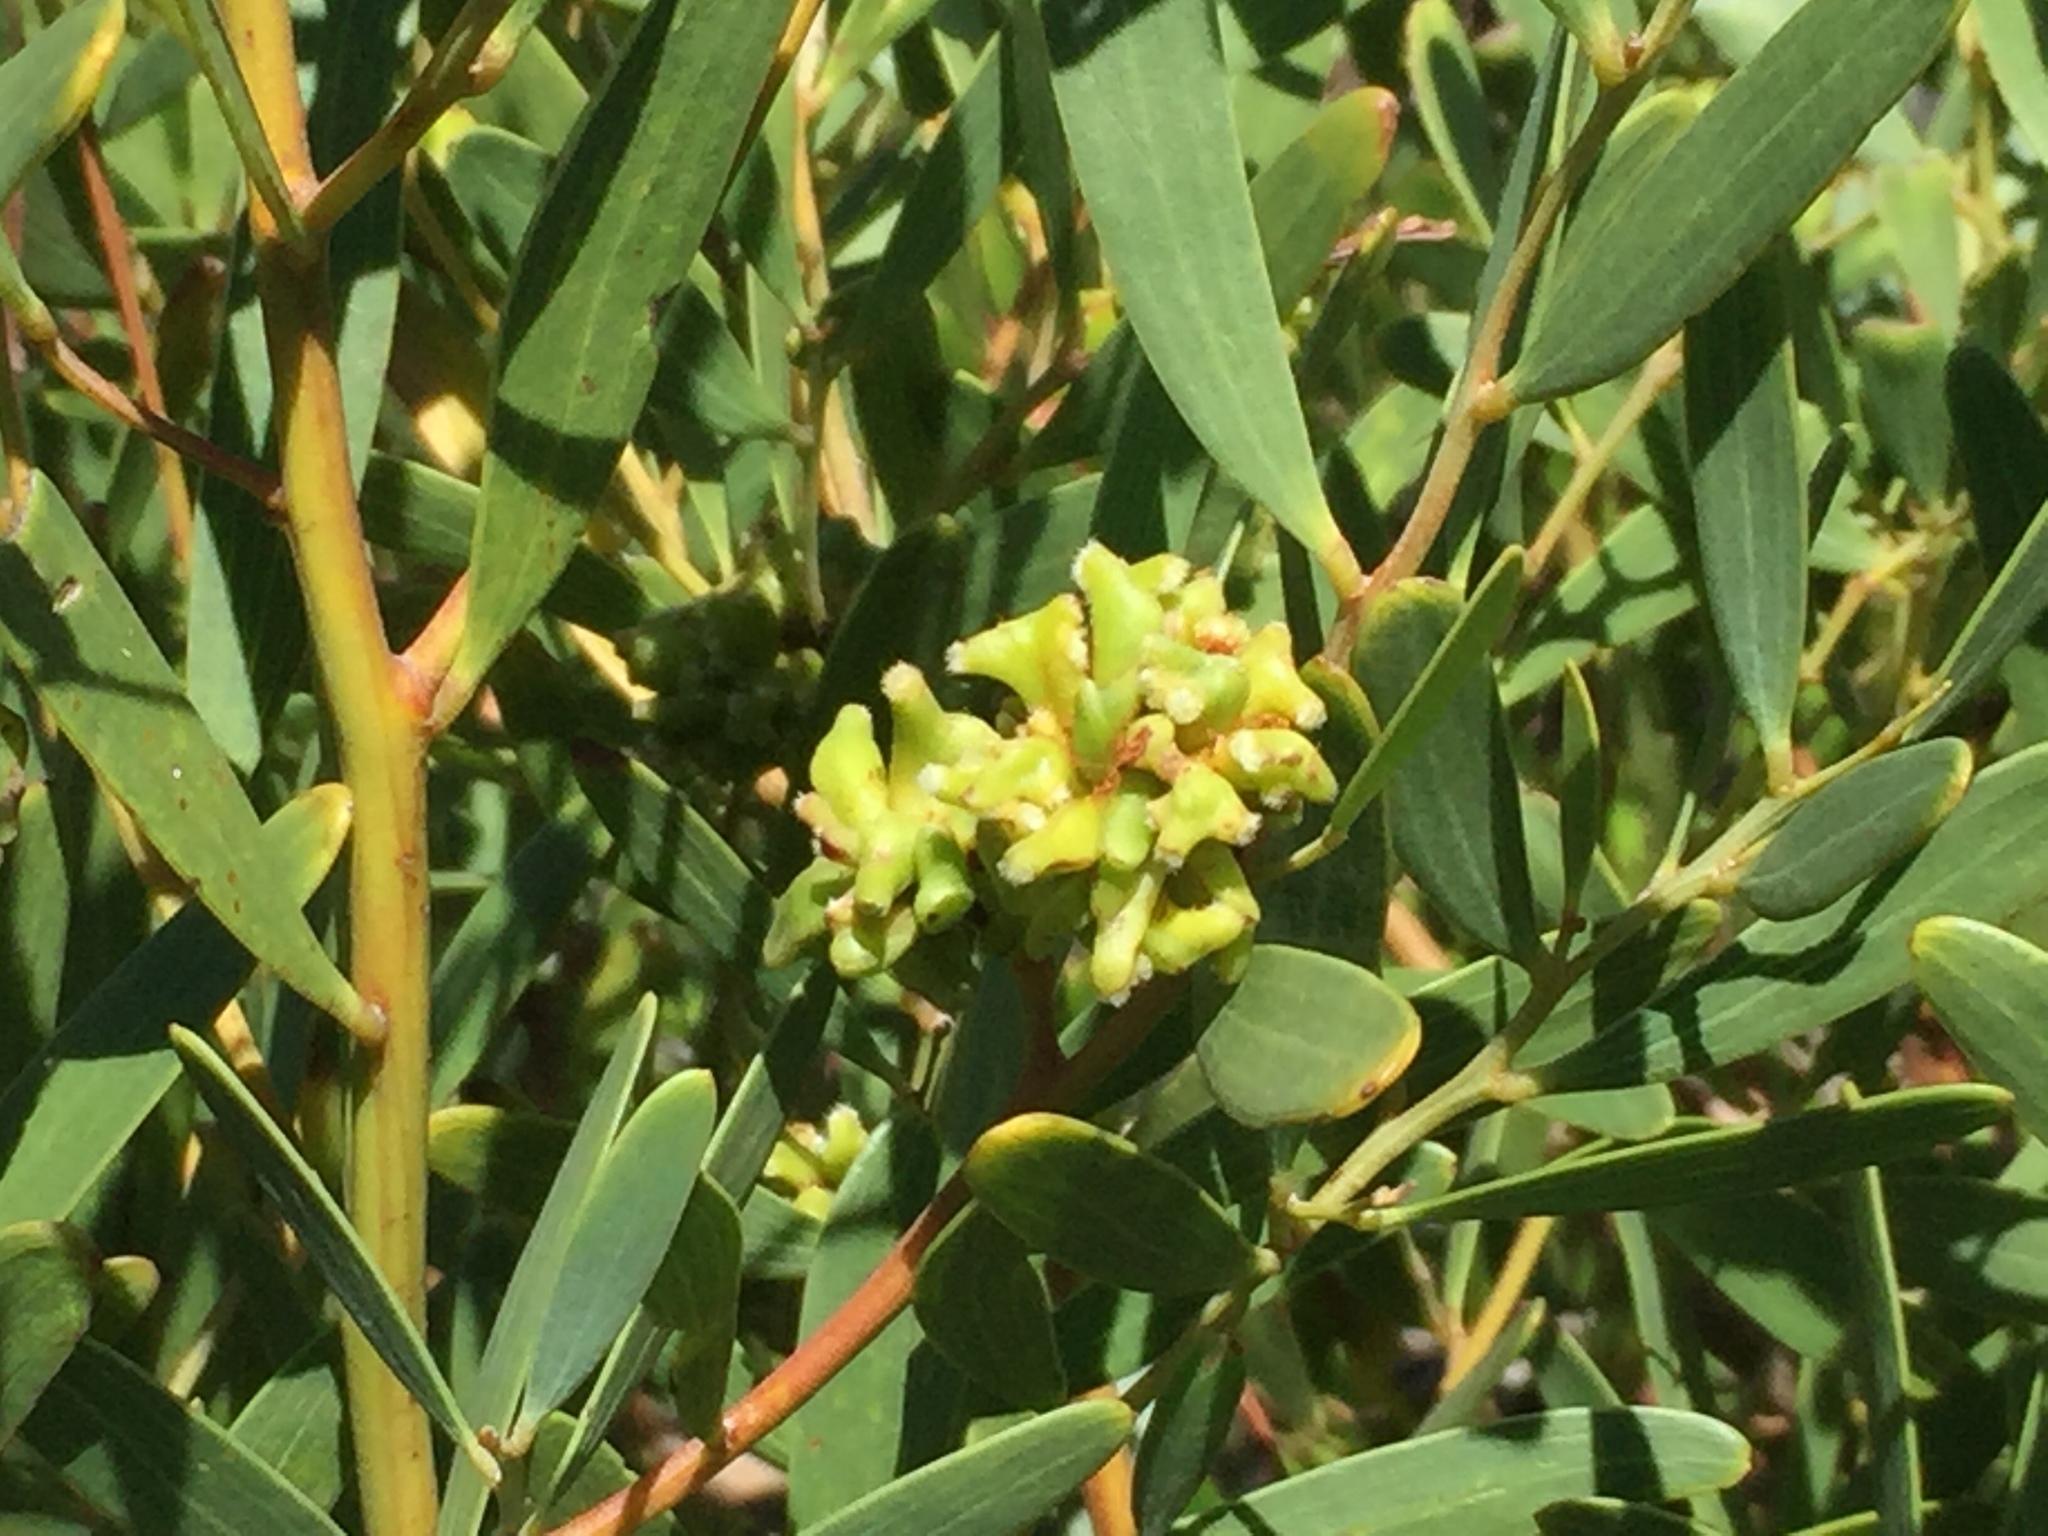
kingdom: Animalia
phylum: Arthropoda
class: Insecta
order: Diptera
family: Cecidomyiidae
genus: Dasineura
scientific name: Dasineura dielsi
